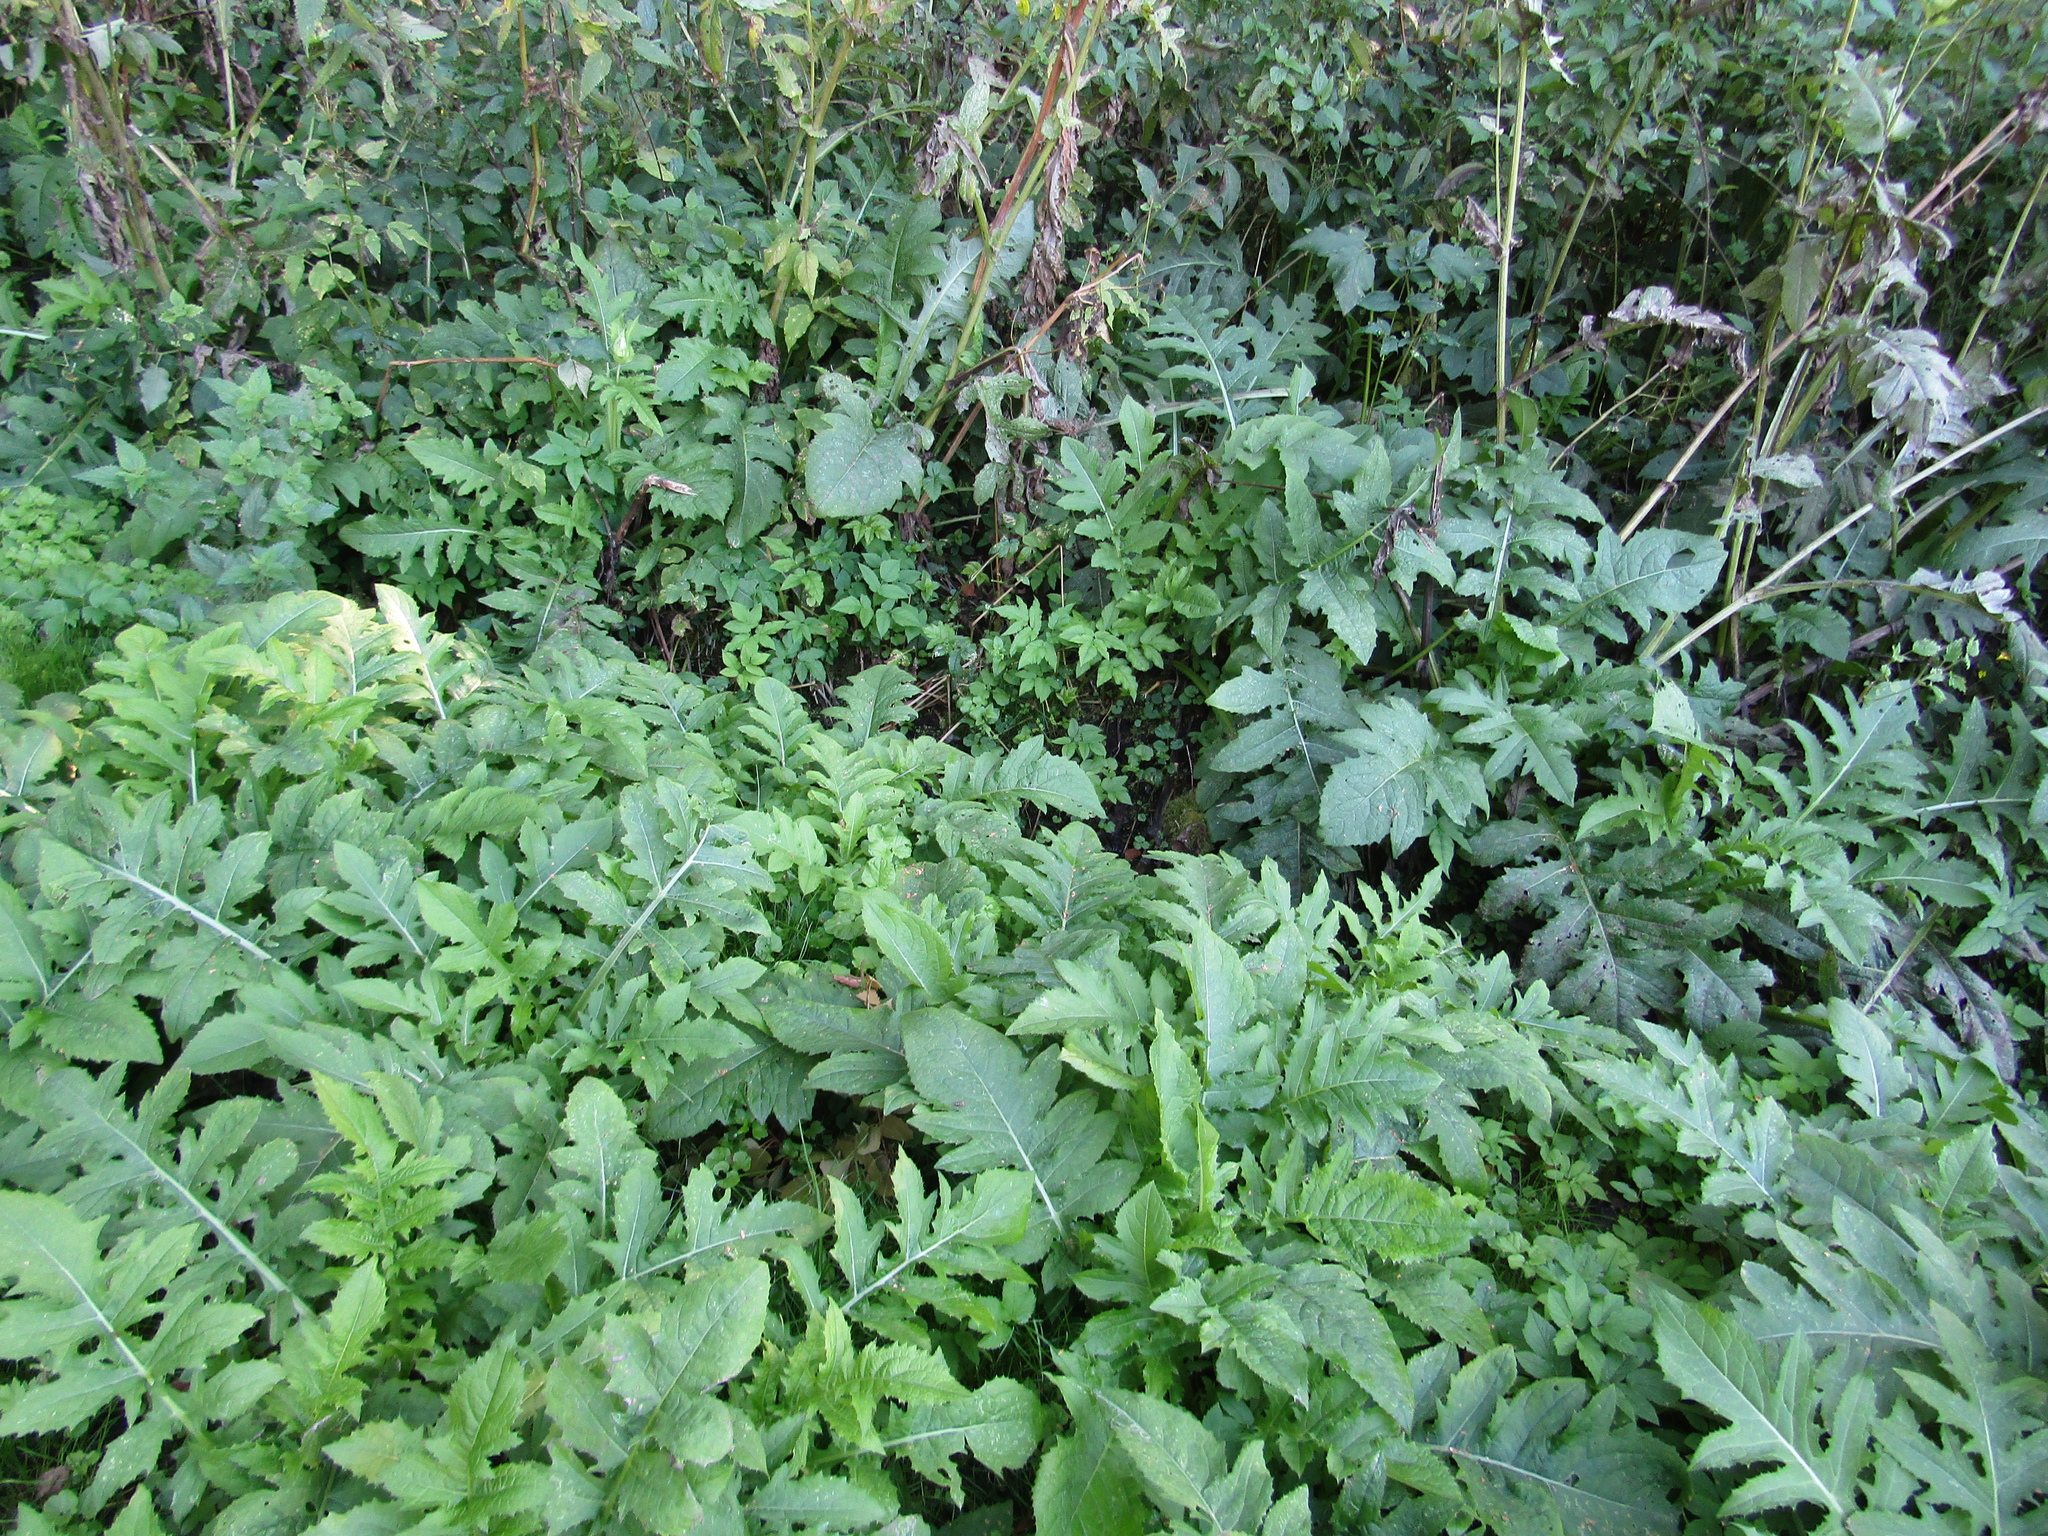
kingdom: Plantae
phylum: Tracheophyta
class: Magnoliopsida
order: Asterales
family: Asteraceae
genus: Cirsium
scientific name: Cirsium oleraceum
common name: Cabbage thistle
